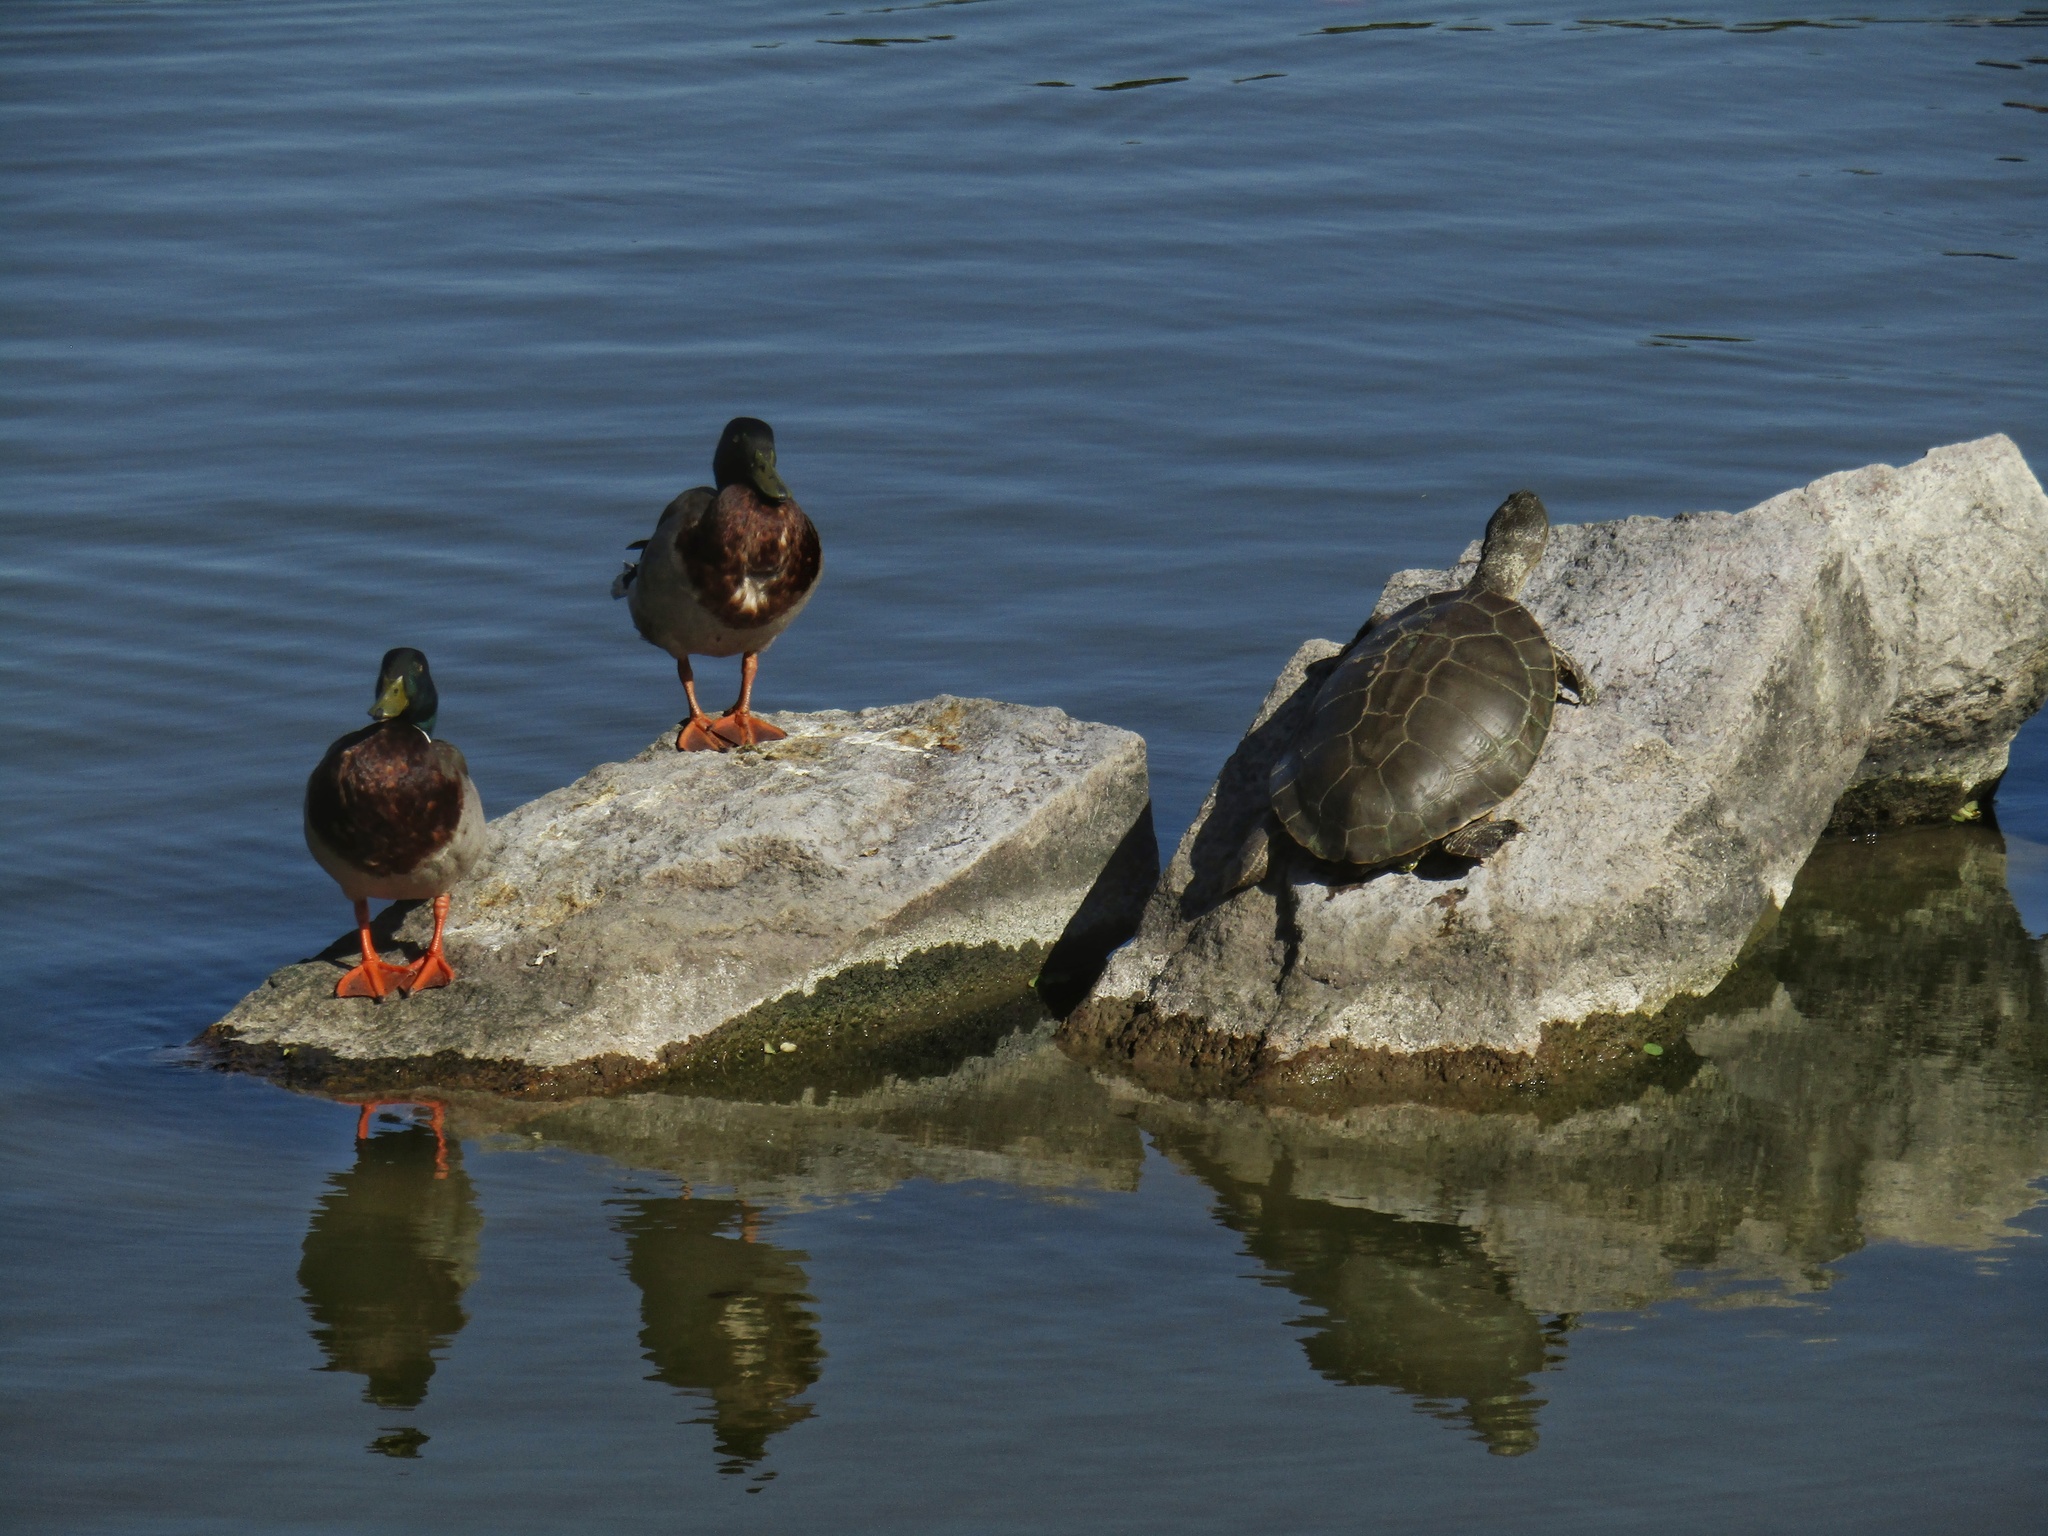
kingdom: Animalia
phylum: Chordata
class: Testudines
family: Chelidae
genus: Phrynops
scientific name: Phrynops hilarii
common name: Side-necked turtle of saint hillaire
